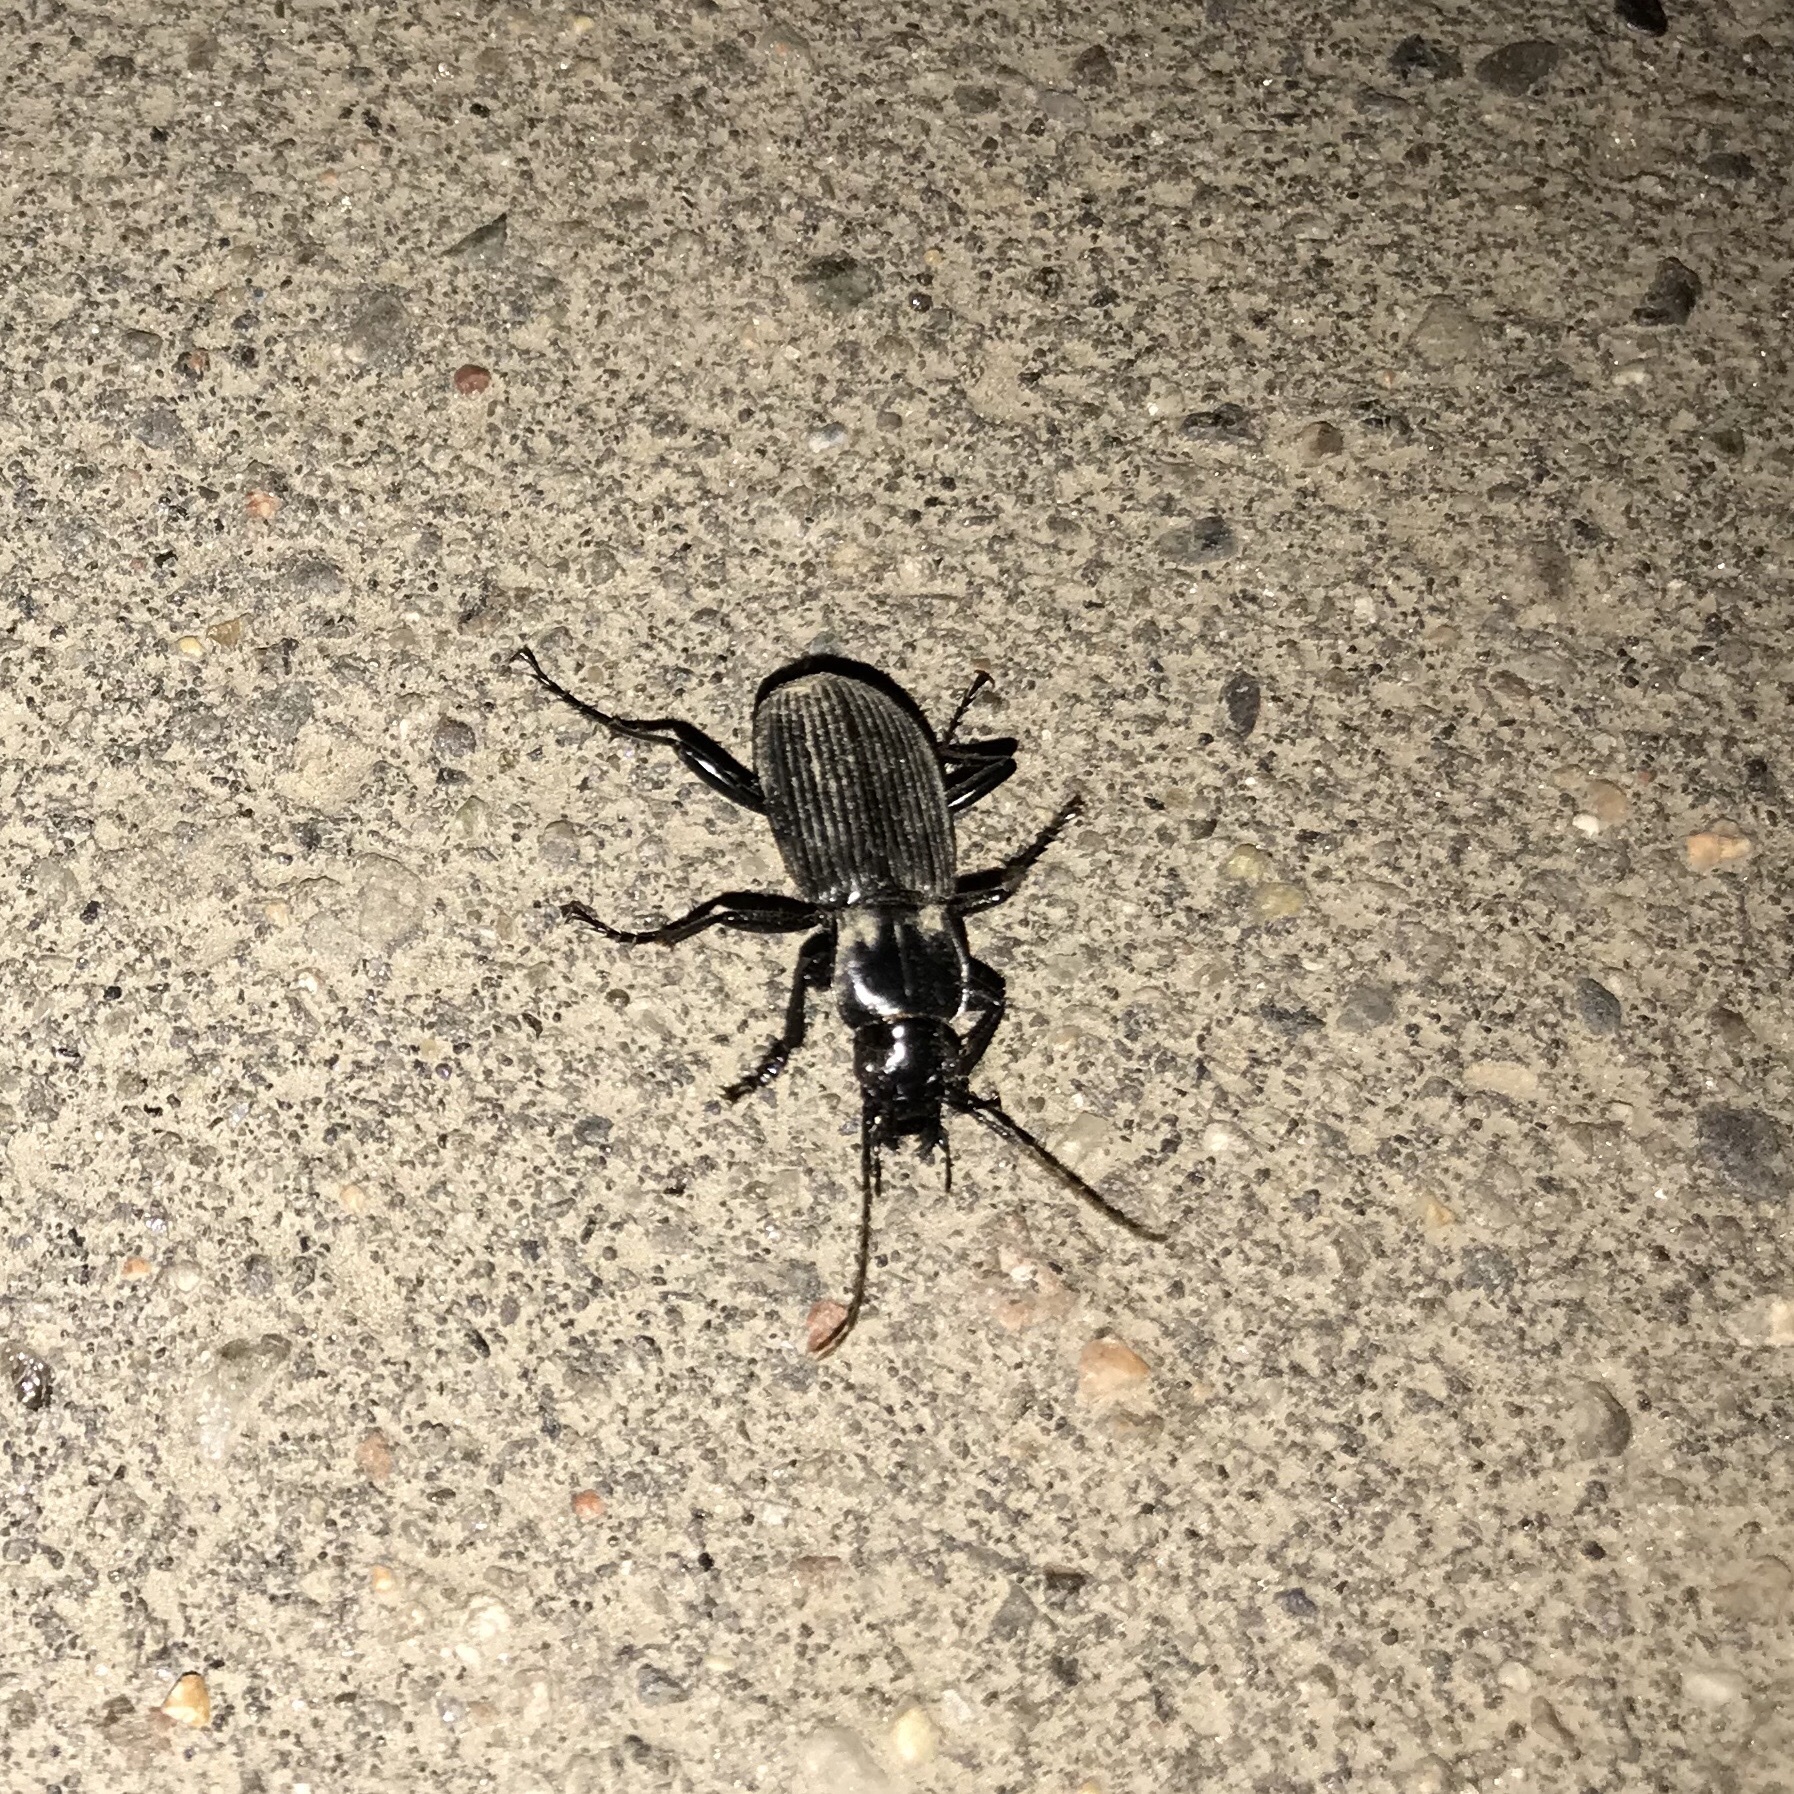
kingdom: Animalia
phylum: Arthropoda
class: Insecta
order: Coleoptera
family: Carabidae
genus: Pterostichus
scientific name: Pterostichus niger
